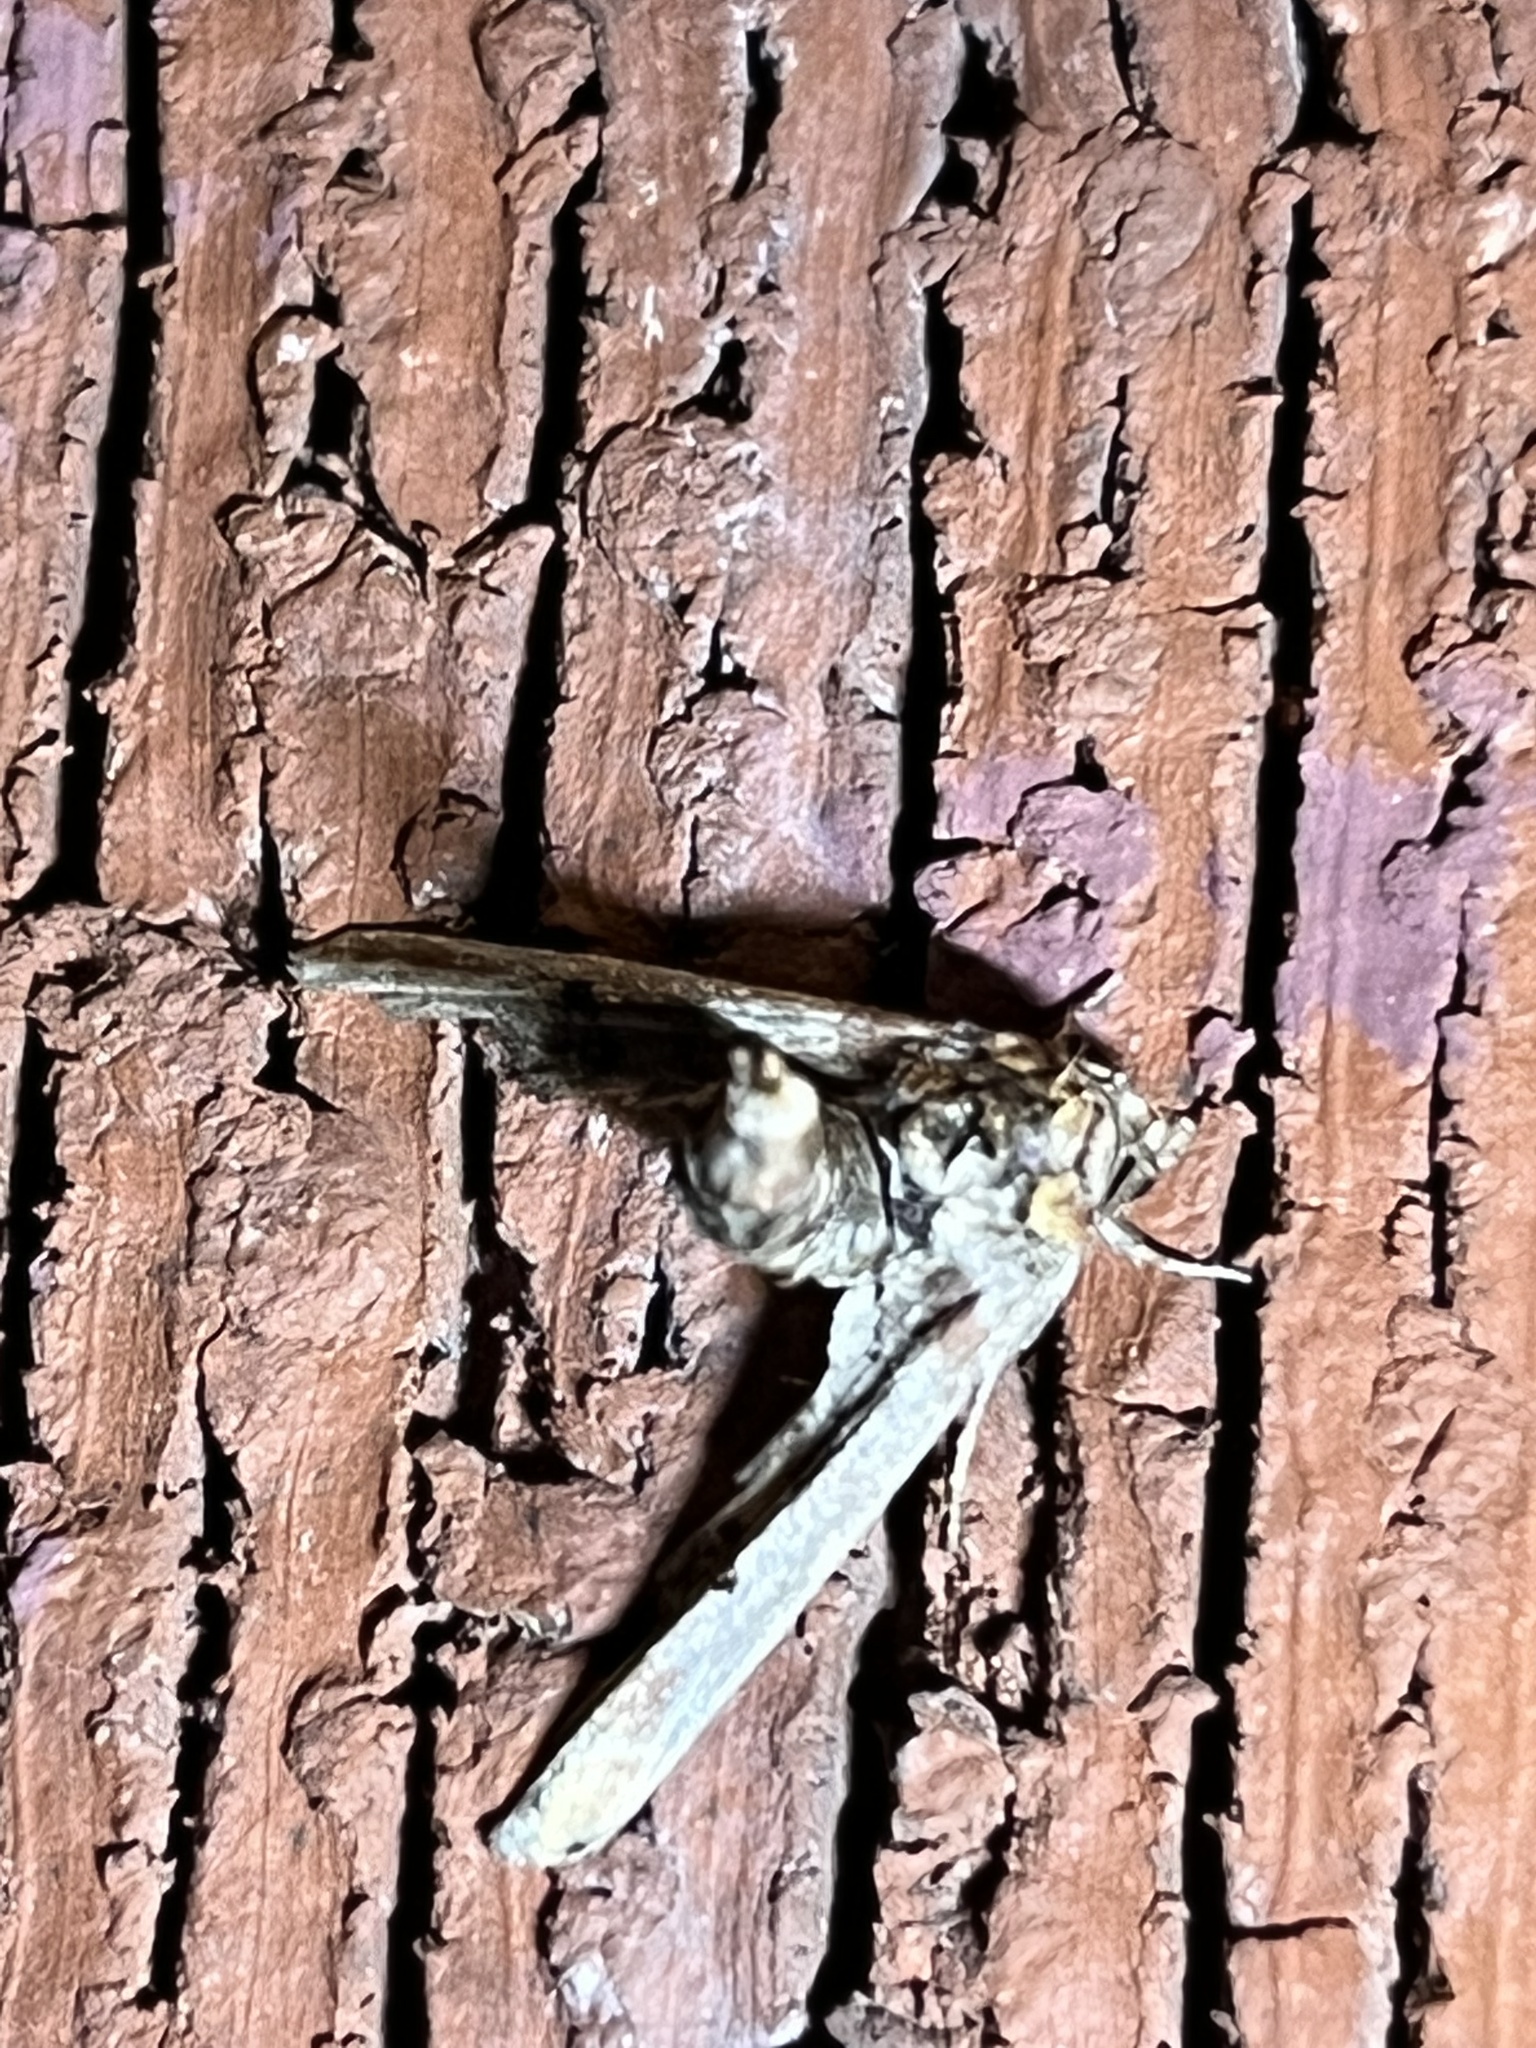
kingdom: Animalia
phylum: Arthropoda
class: Insecta
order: Lepidoptera
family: Euteliidae
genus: Marathyssa
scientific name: Marathyssa inficita
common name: Dark marathyssa moth
